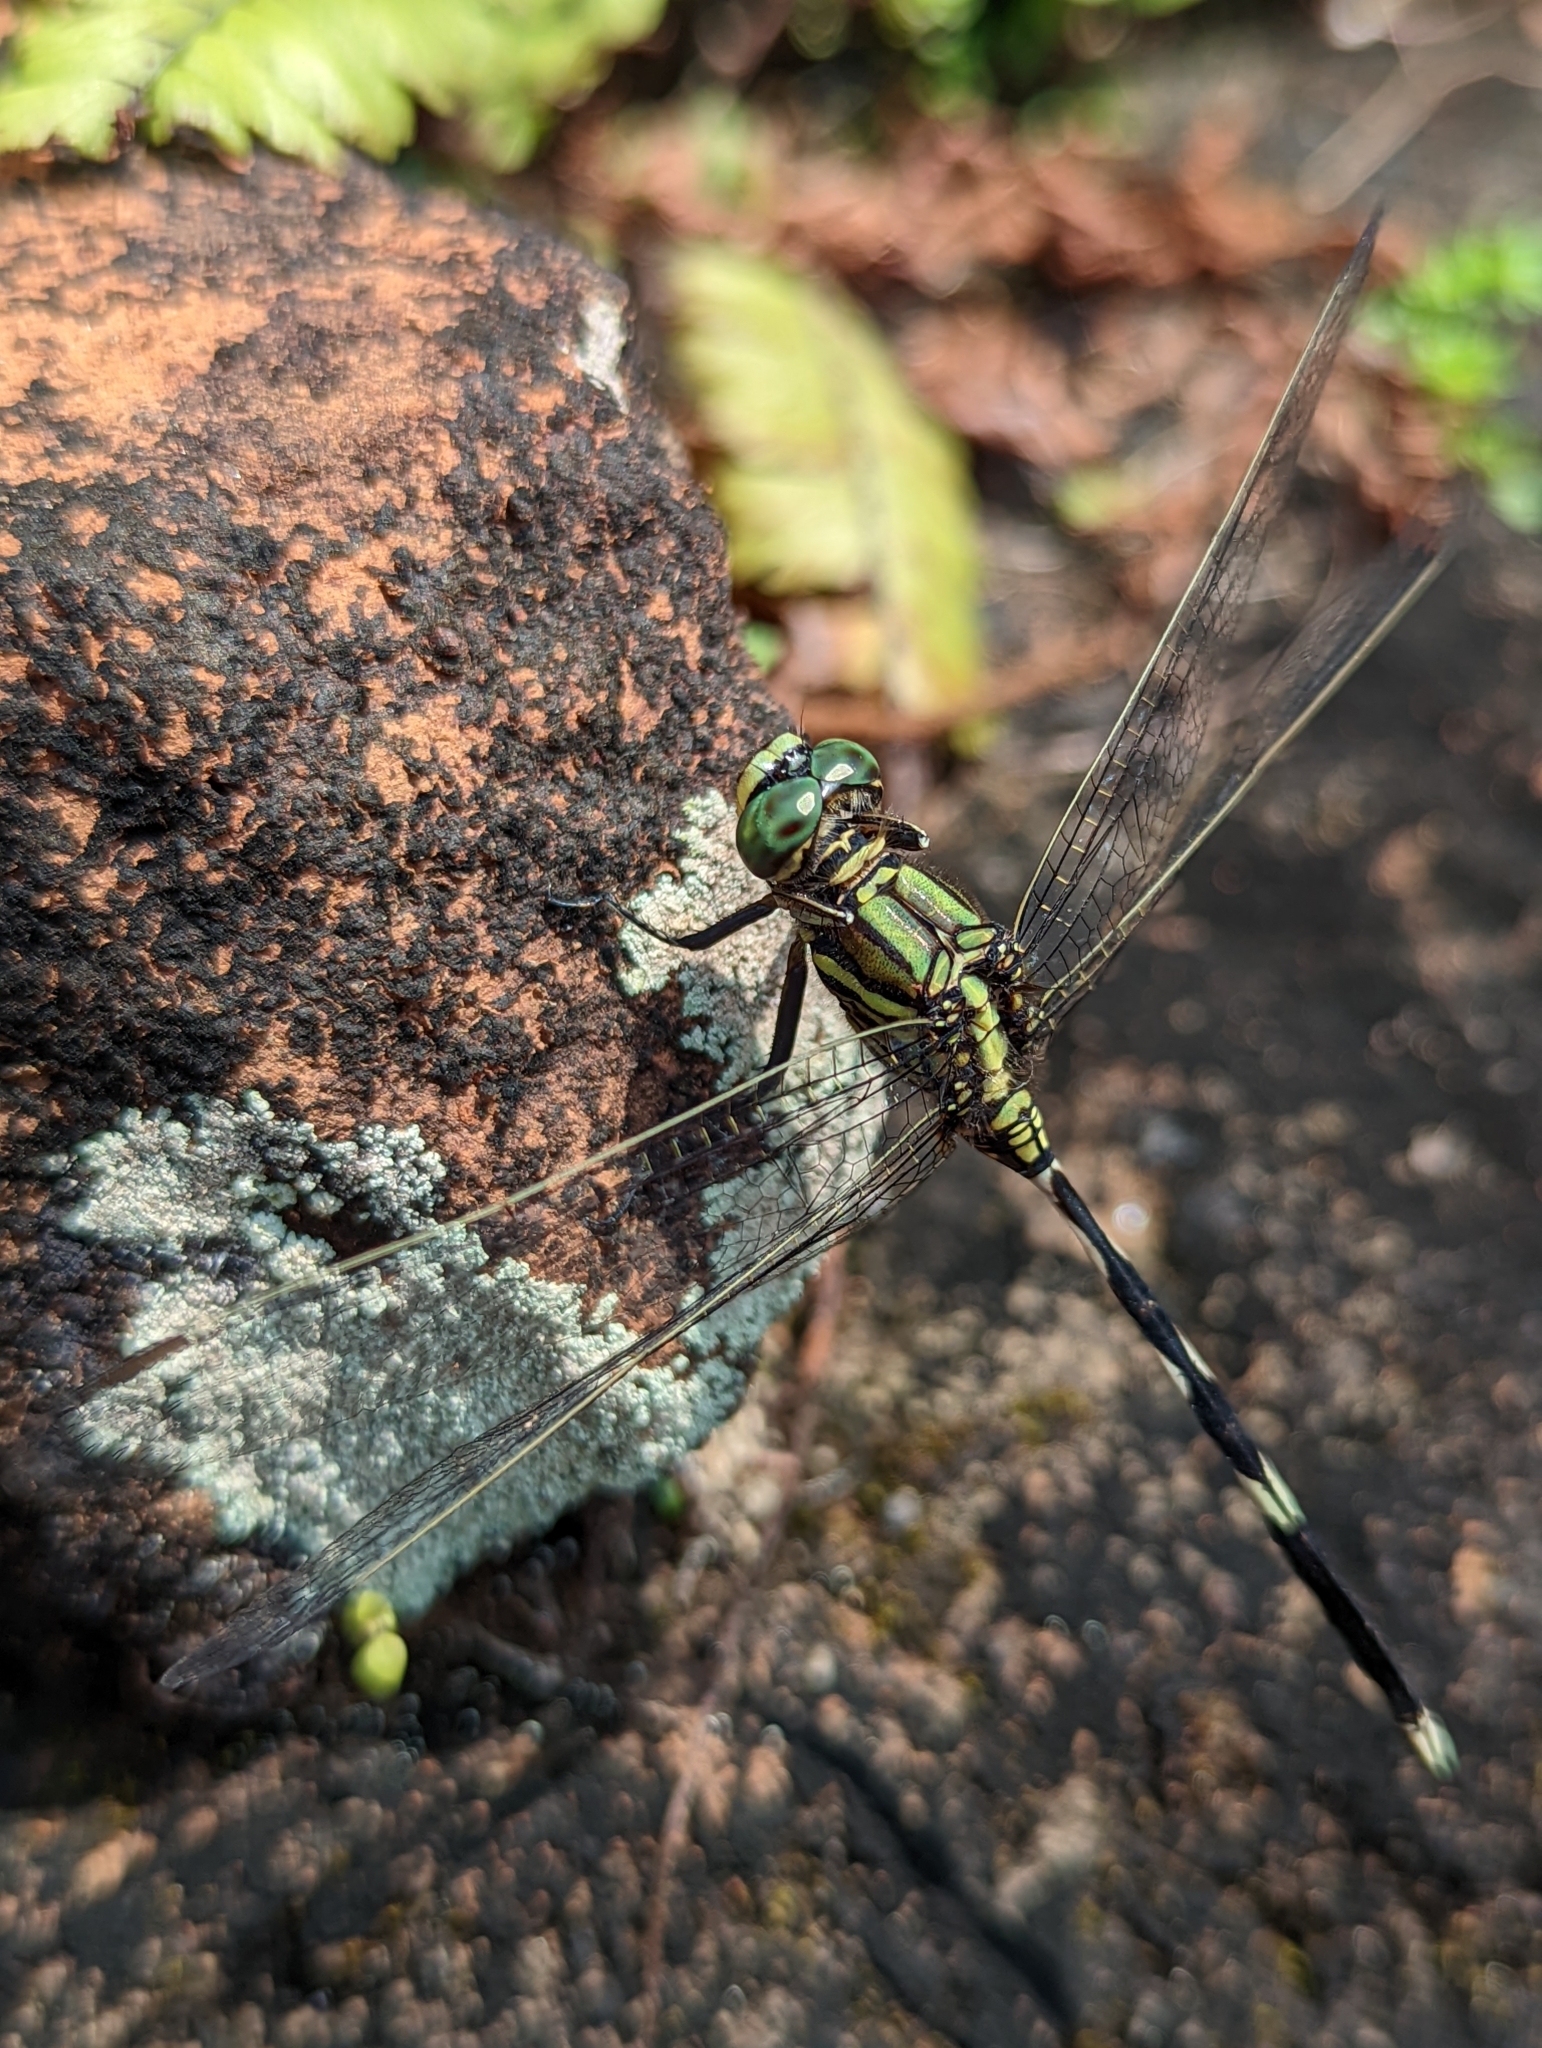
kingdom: Animalia
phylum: Arthropoda
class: Insecta
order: Odonata
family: Libellulidae
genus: Orthetrum
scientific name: Orthetrum sabina
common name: Slender skimmer
